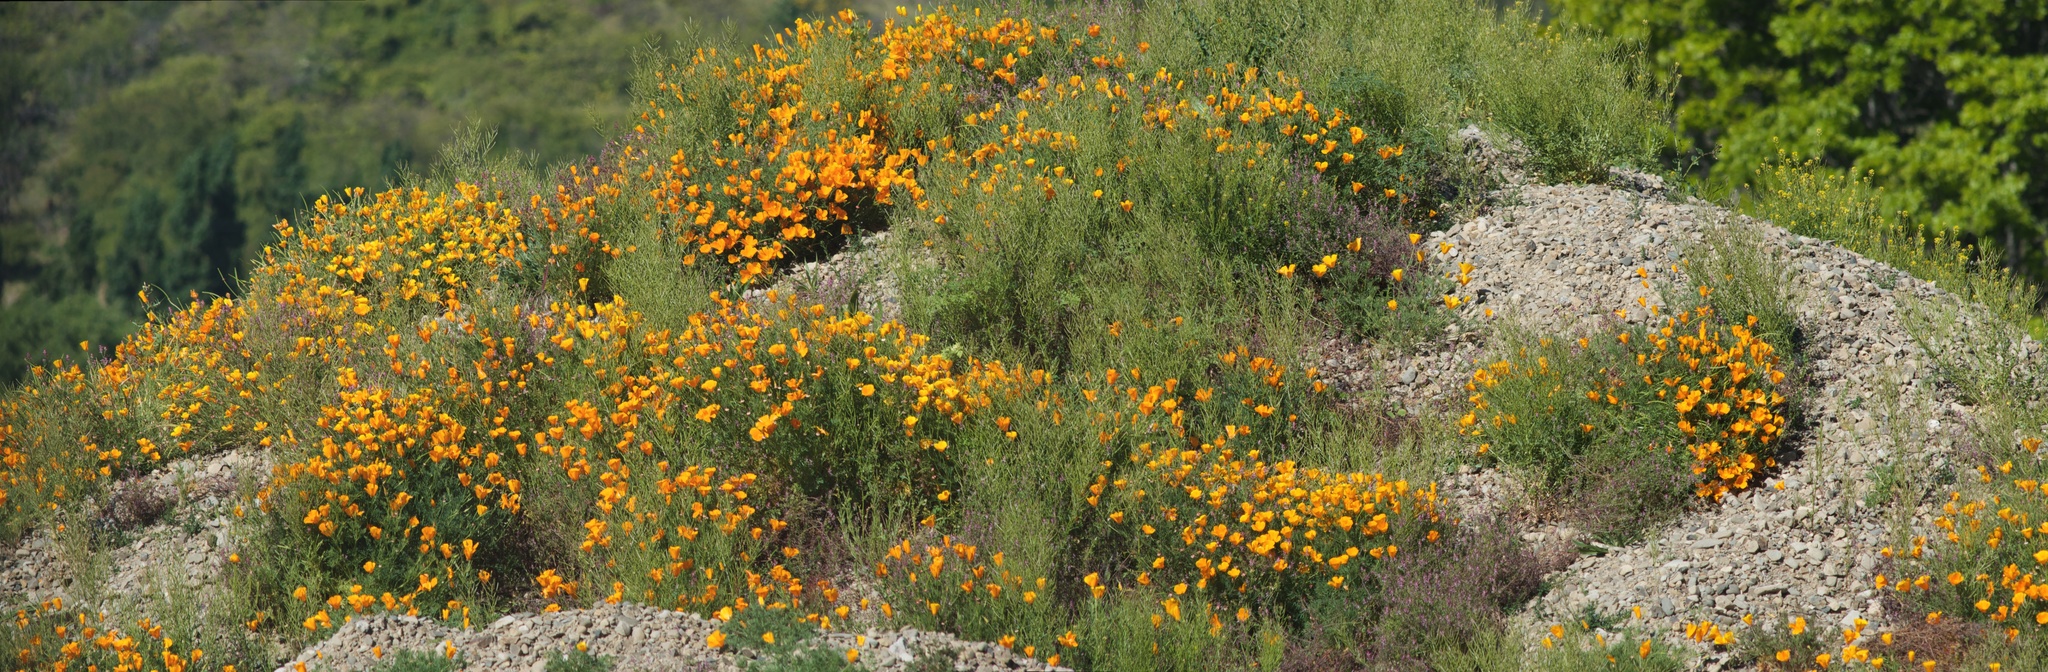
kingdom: Plantae
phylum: Tracheophyta
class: Magnoliopsida
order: Ranunculales
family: Papaveraceae
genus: Eschscholzia
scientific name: Eschscholzia californica
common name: California poppy
